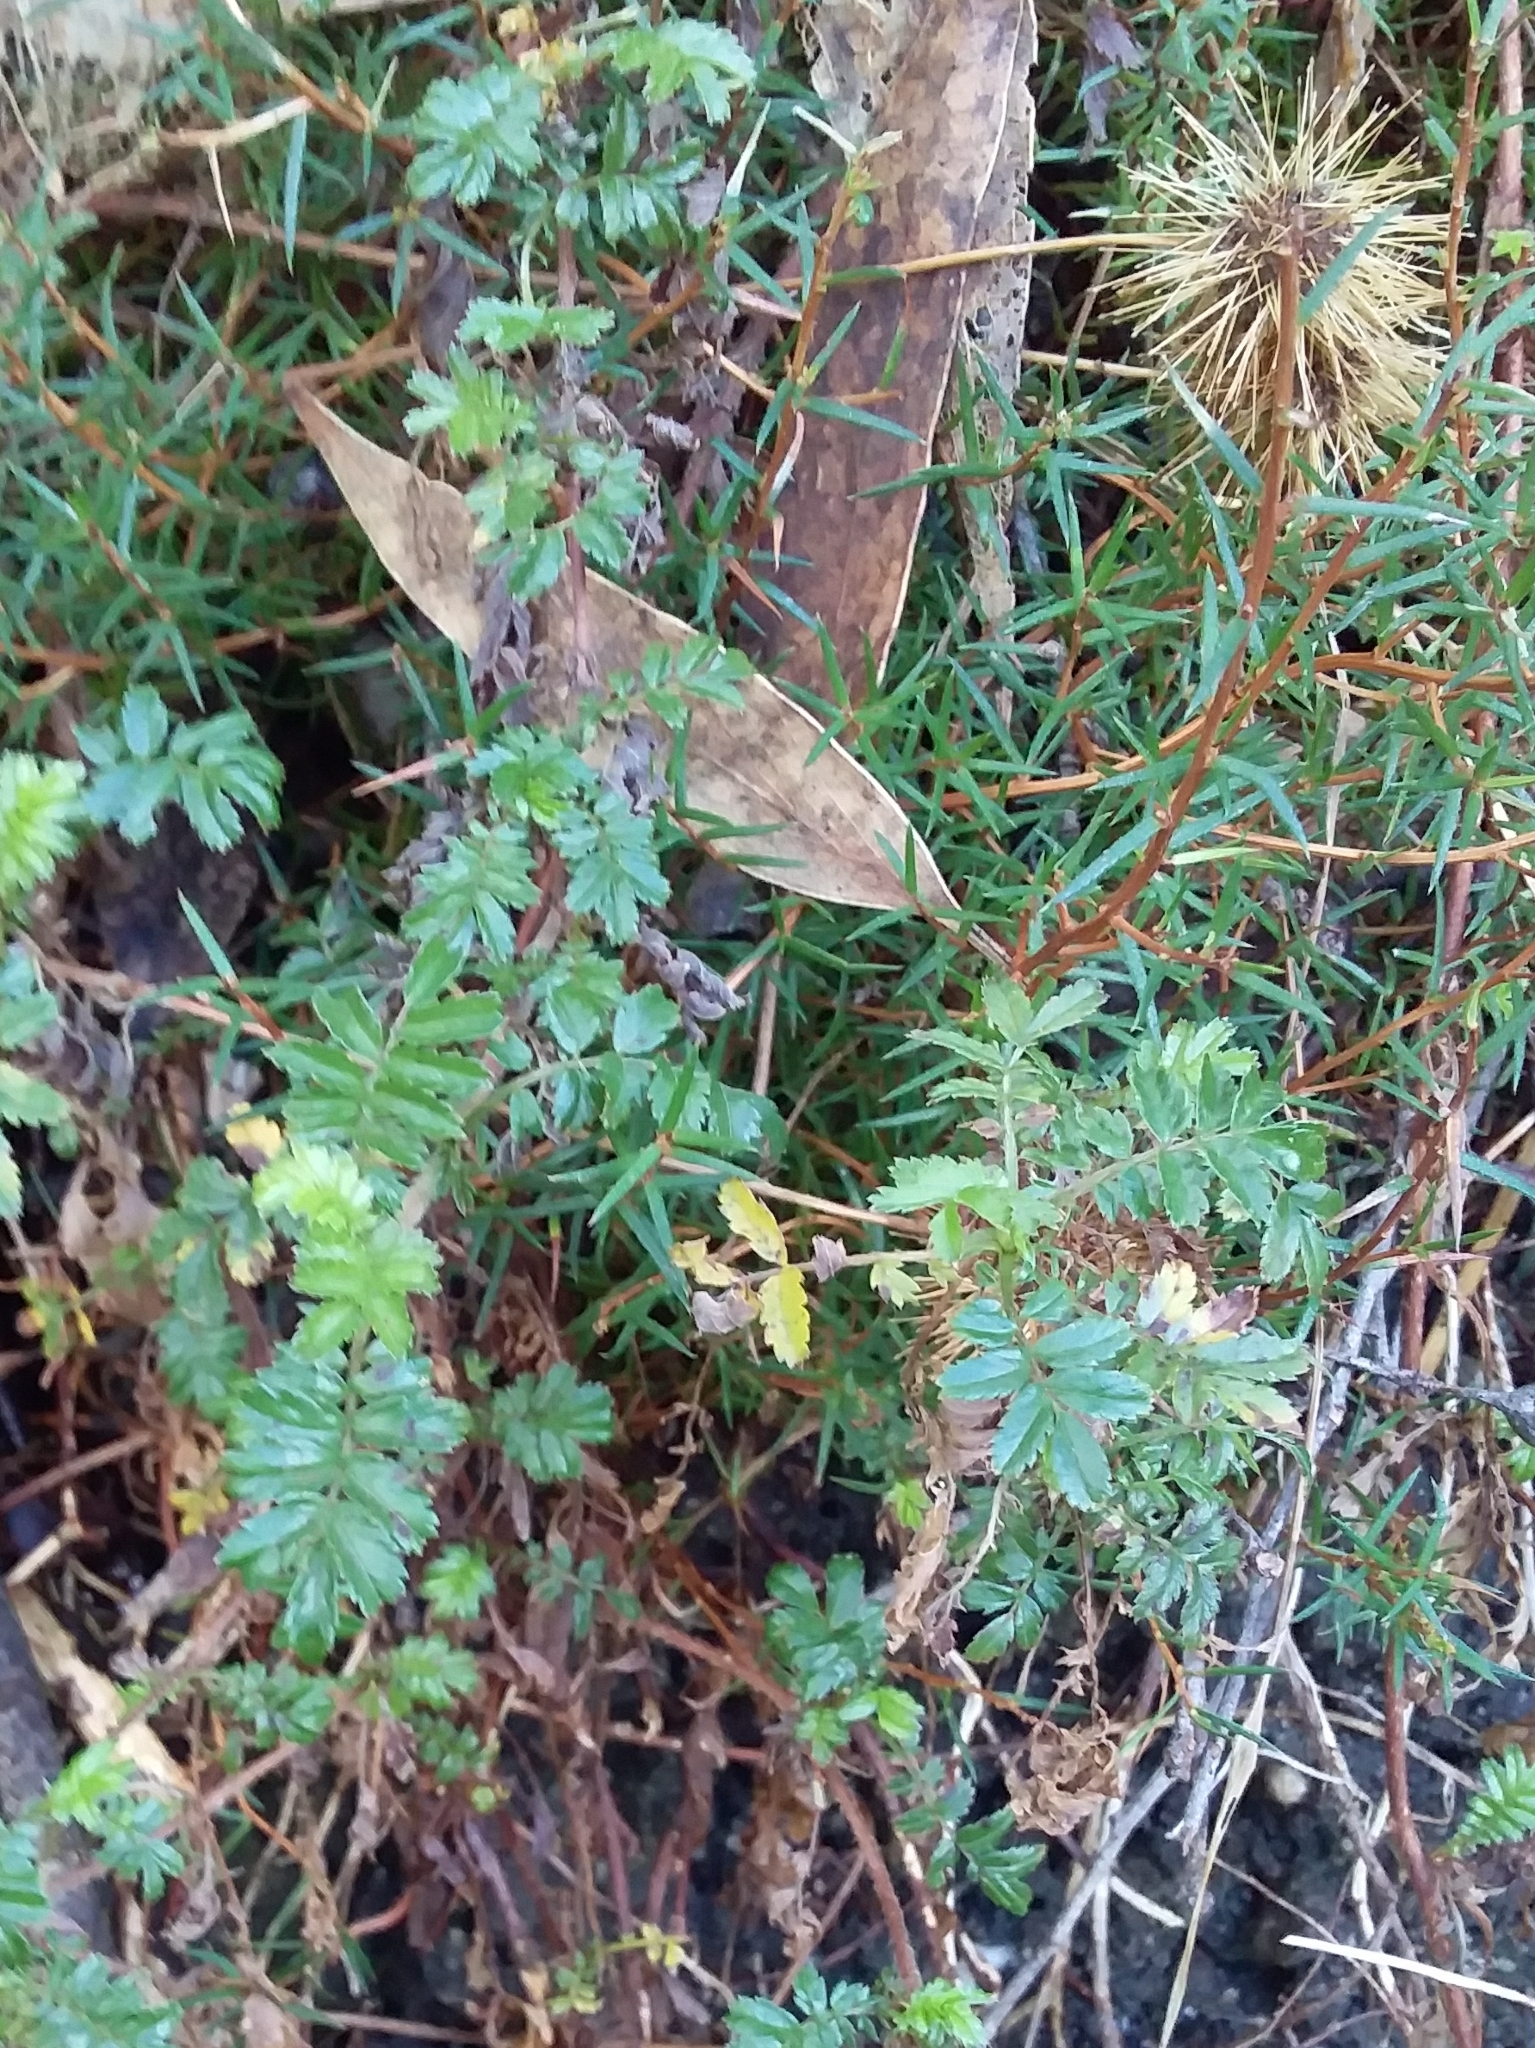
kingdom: Plantae
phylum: Tracheophyta
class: Magnoliopsida
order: Rosales
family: Rosaceae
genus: Acaena
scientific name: Acaena novae-zelandiae
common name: Pirri-pirri-bur
